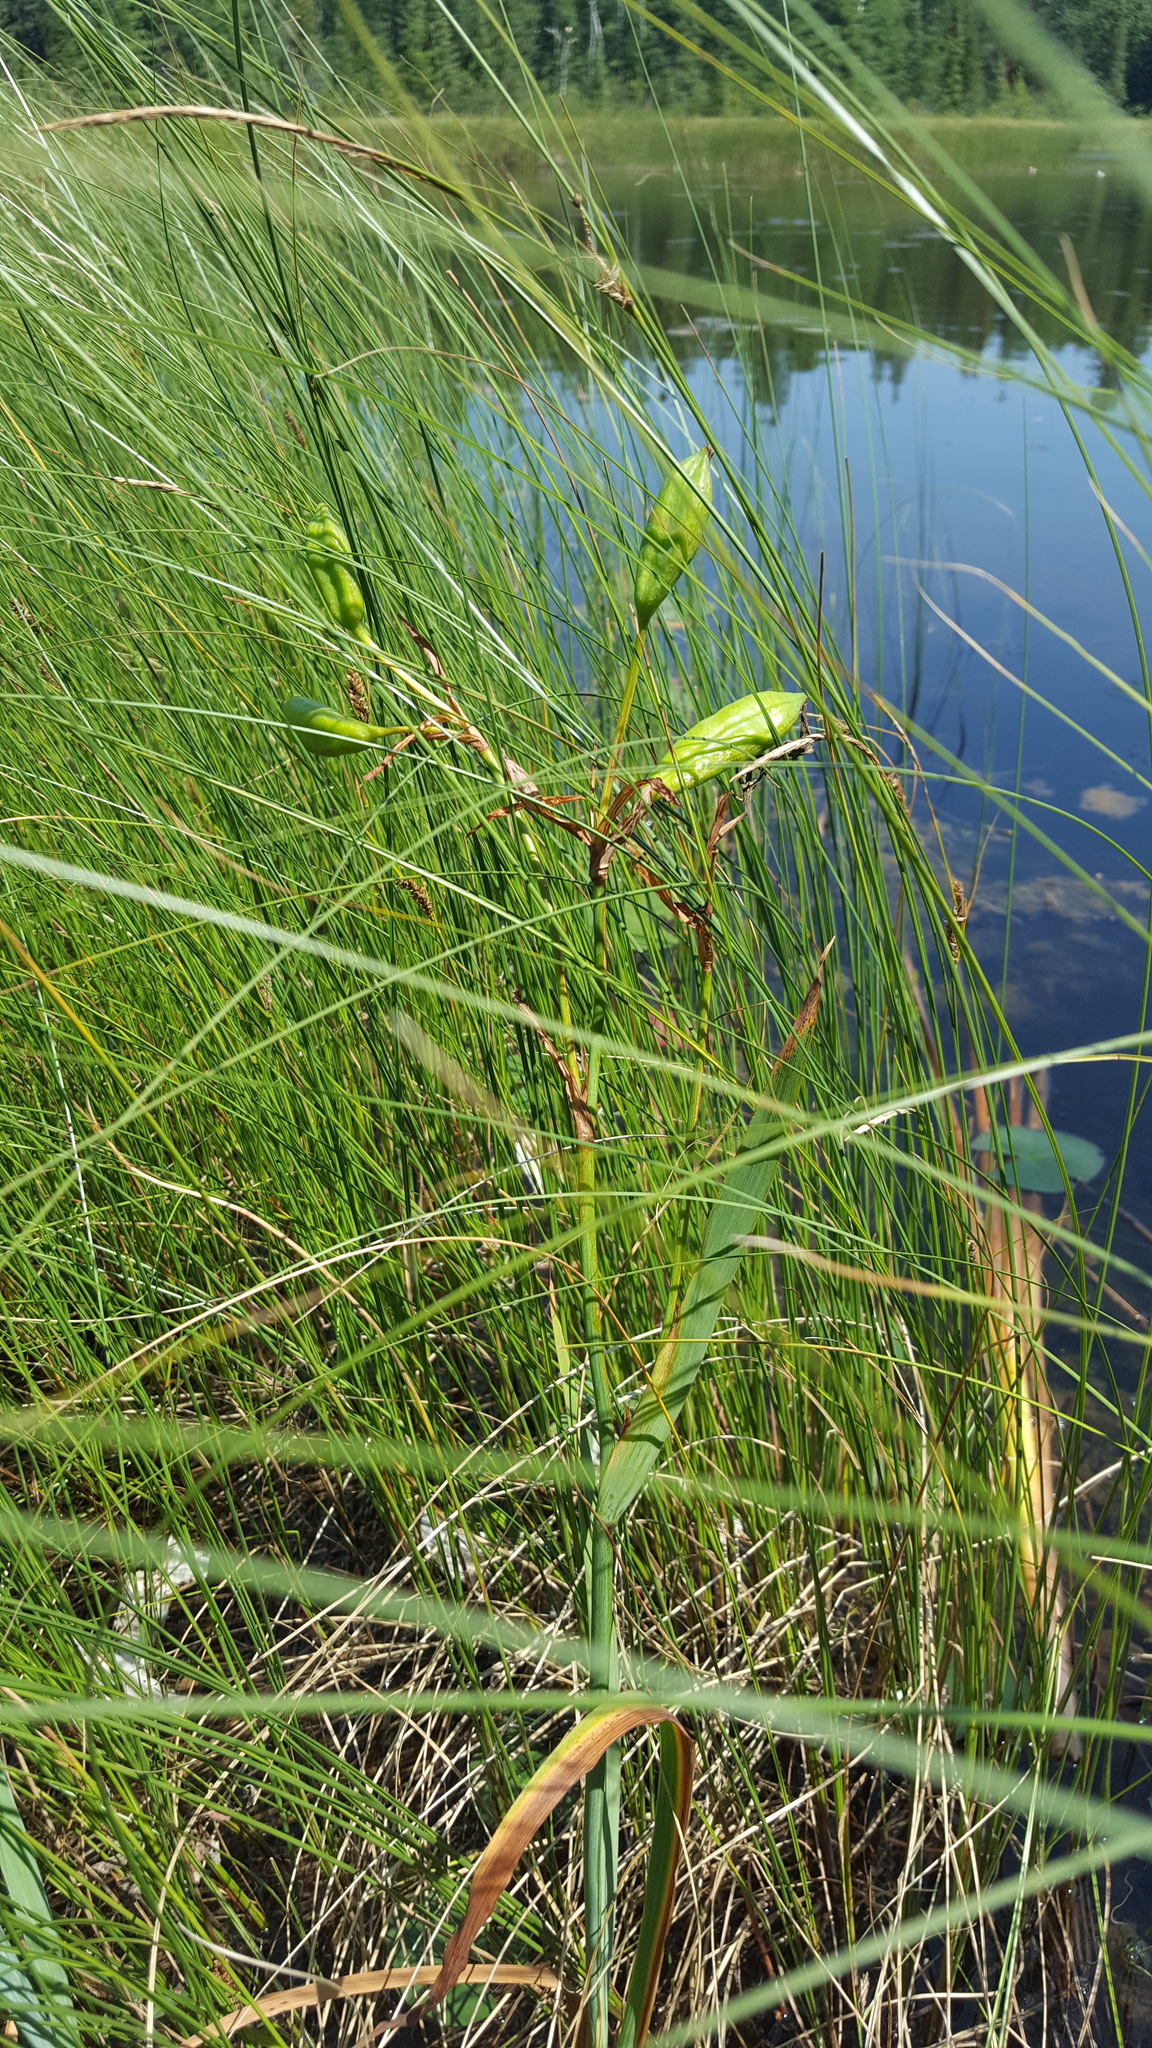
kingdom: Plantae
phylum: Tracheophyta
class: Liliopsida
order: Asparagales
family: Iridaceae
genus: Iris
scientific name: Iris versicolor
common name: Purple iris
